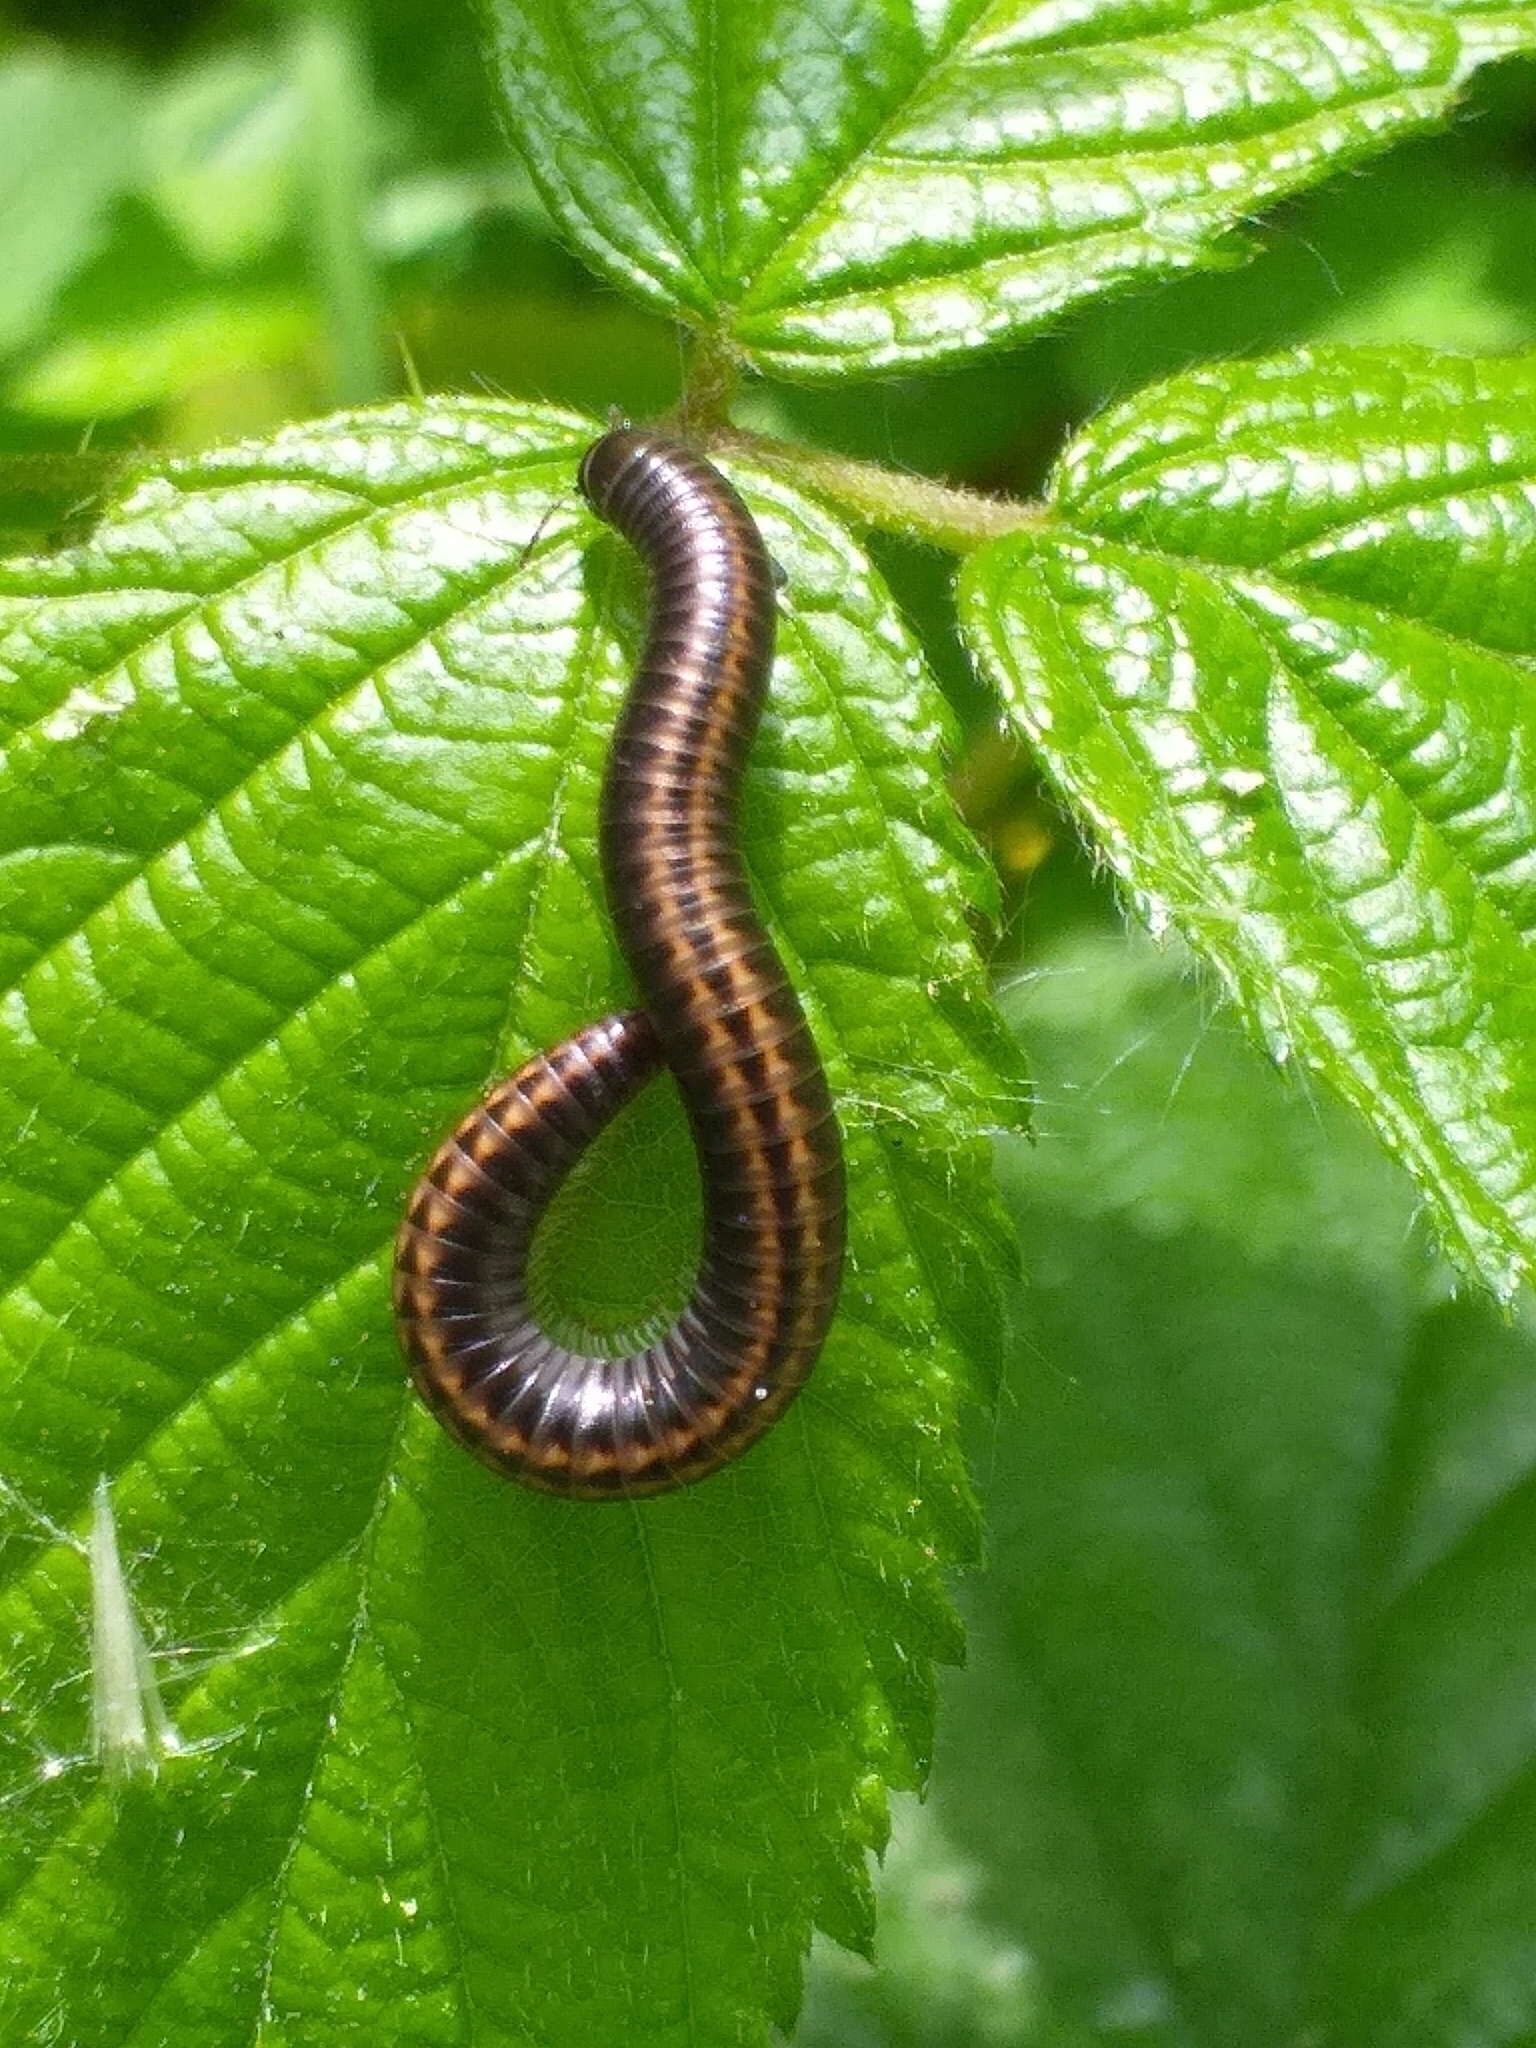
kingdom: Animalia
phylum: Arthropoda
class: Diplopoda
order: Julida
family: Julidae
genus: Ommatoiulus
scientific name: Ommatoiulus sabulosus
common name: Striped millipede
